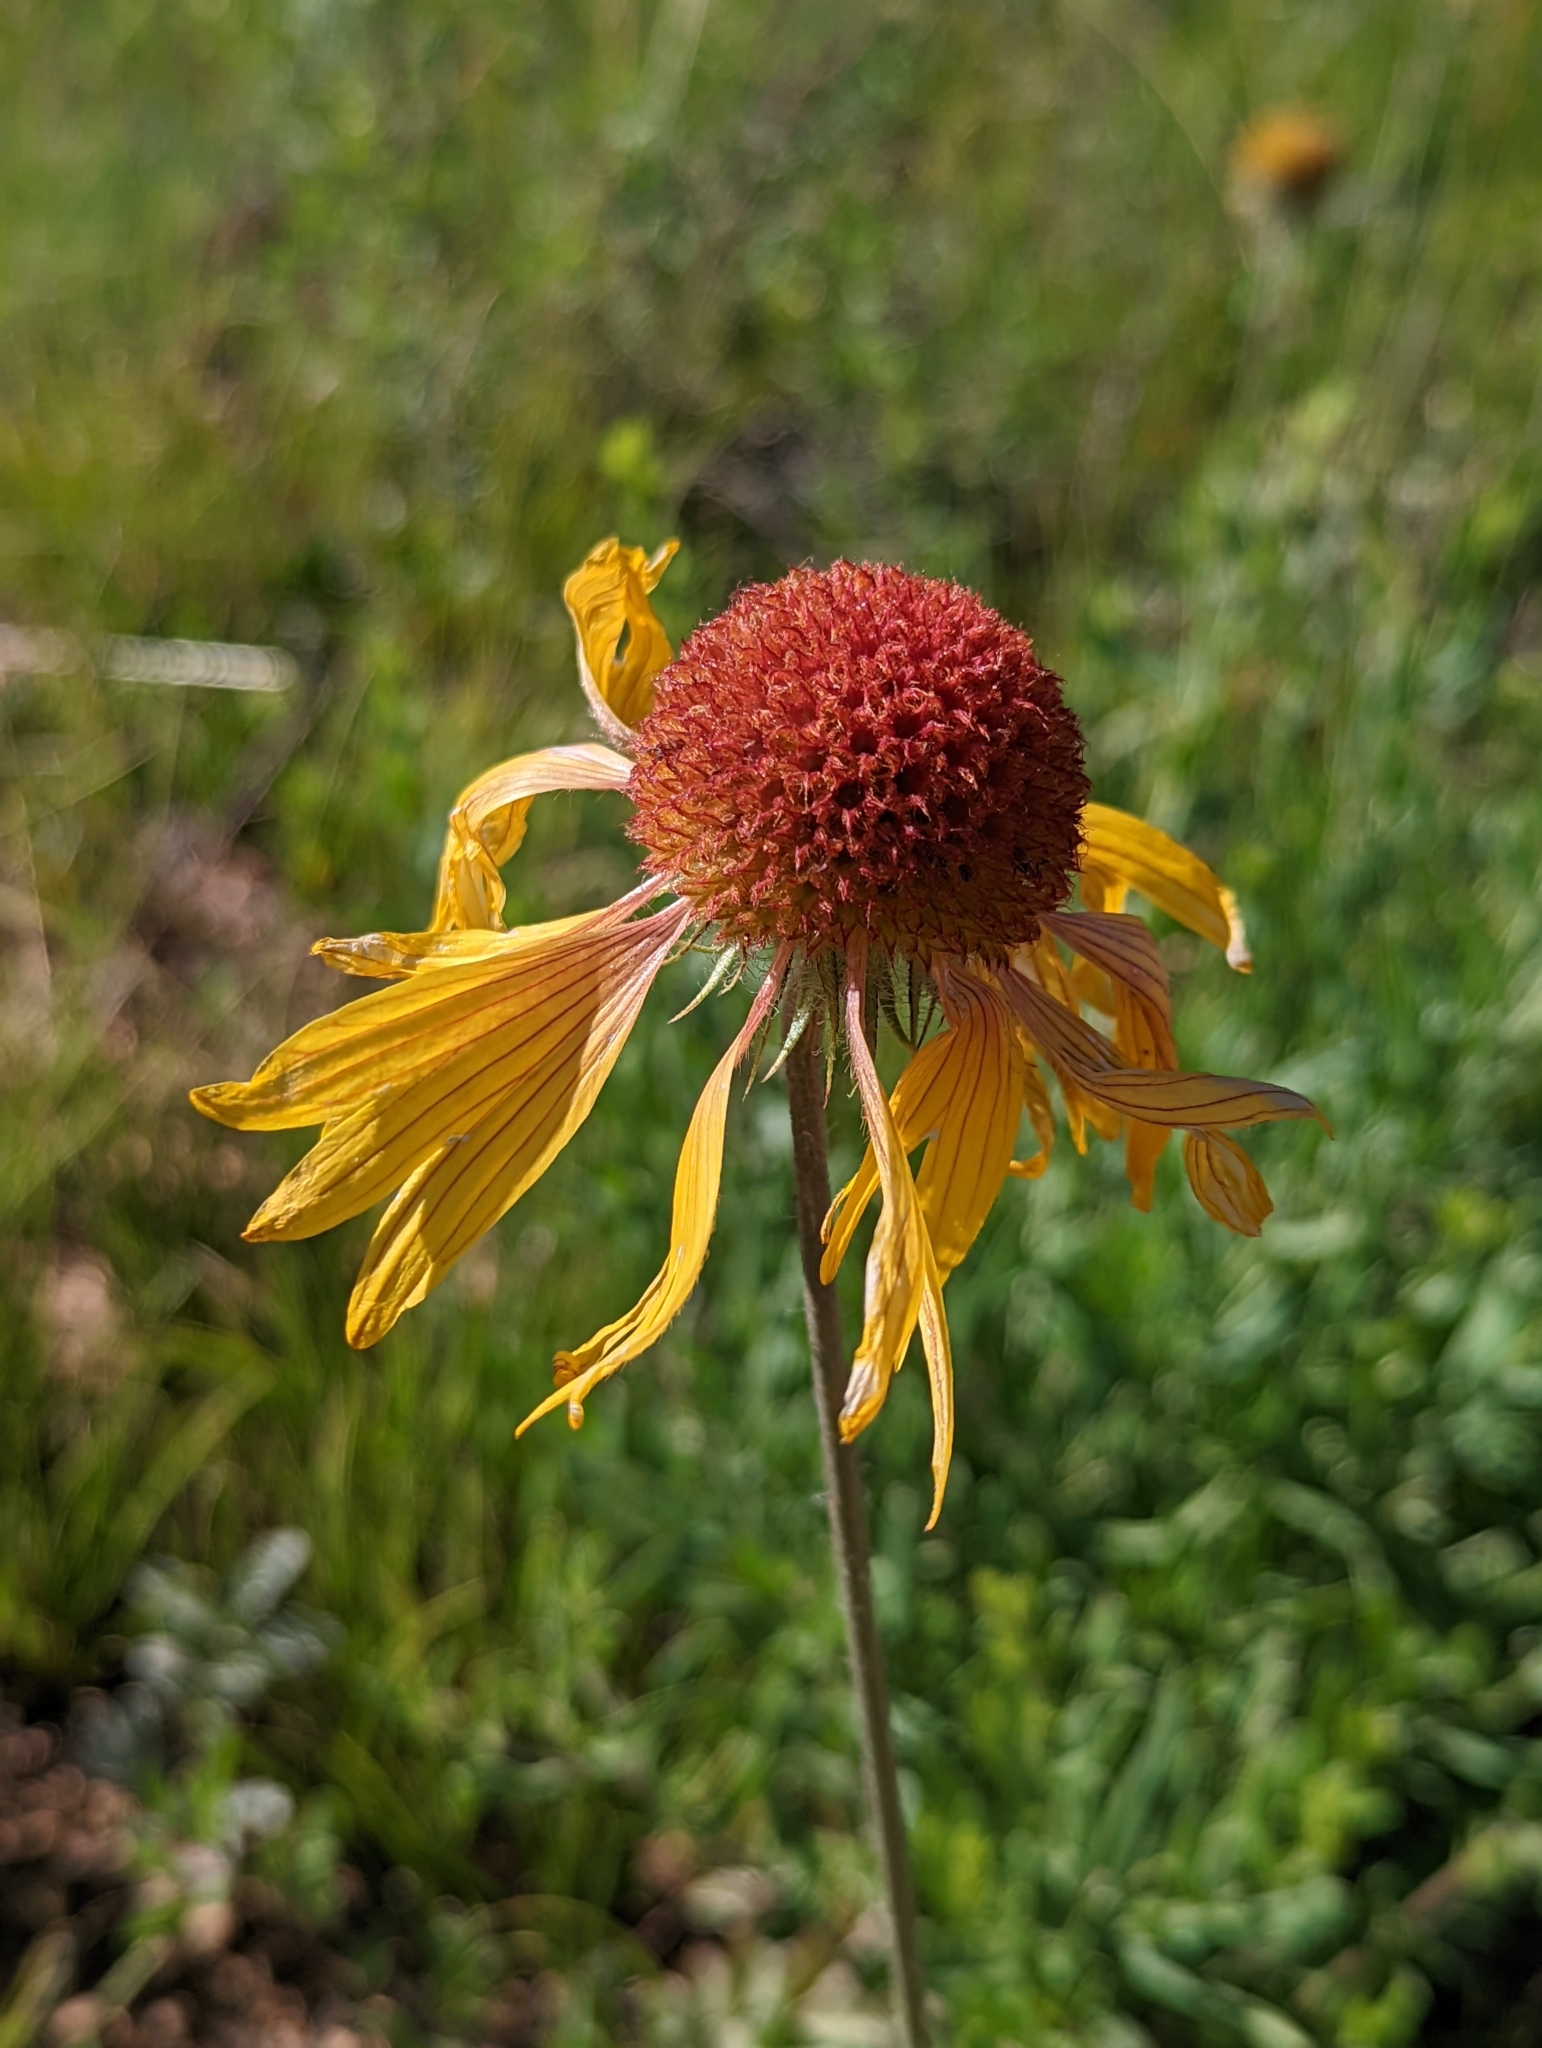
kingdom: Plantae
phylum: Tracheophyta
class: Magnoliopsida
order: Asterales
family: Asteraceae
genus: Gaillardia
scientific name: Gaillardia aristata
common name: Blanket-flower
